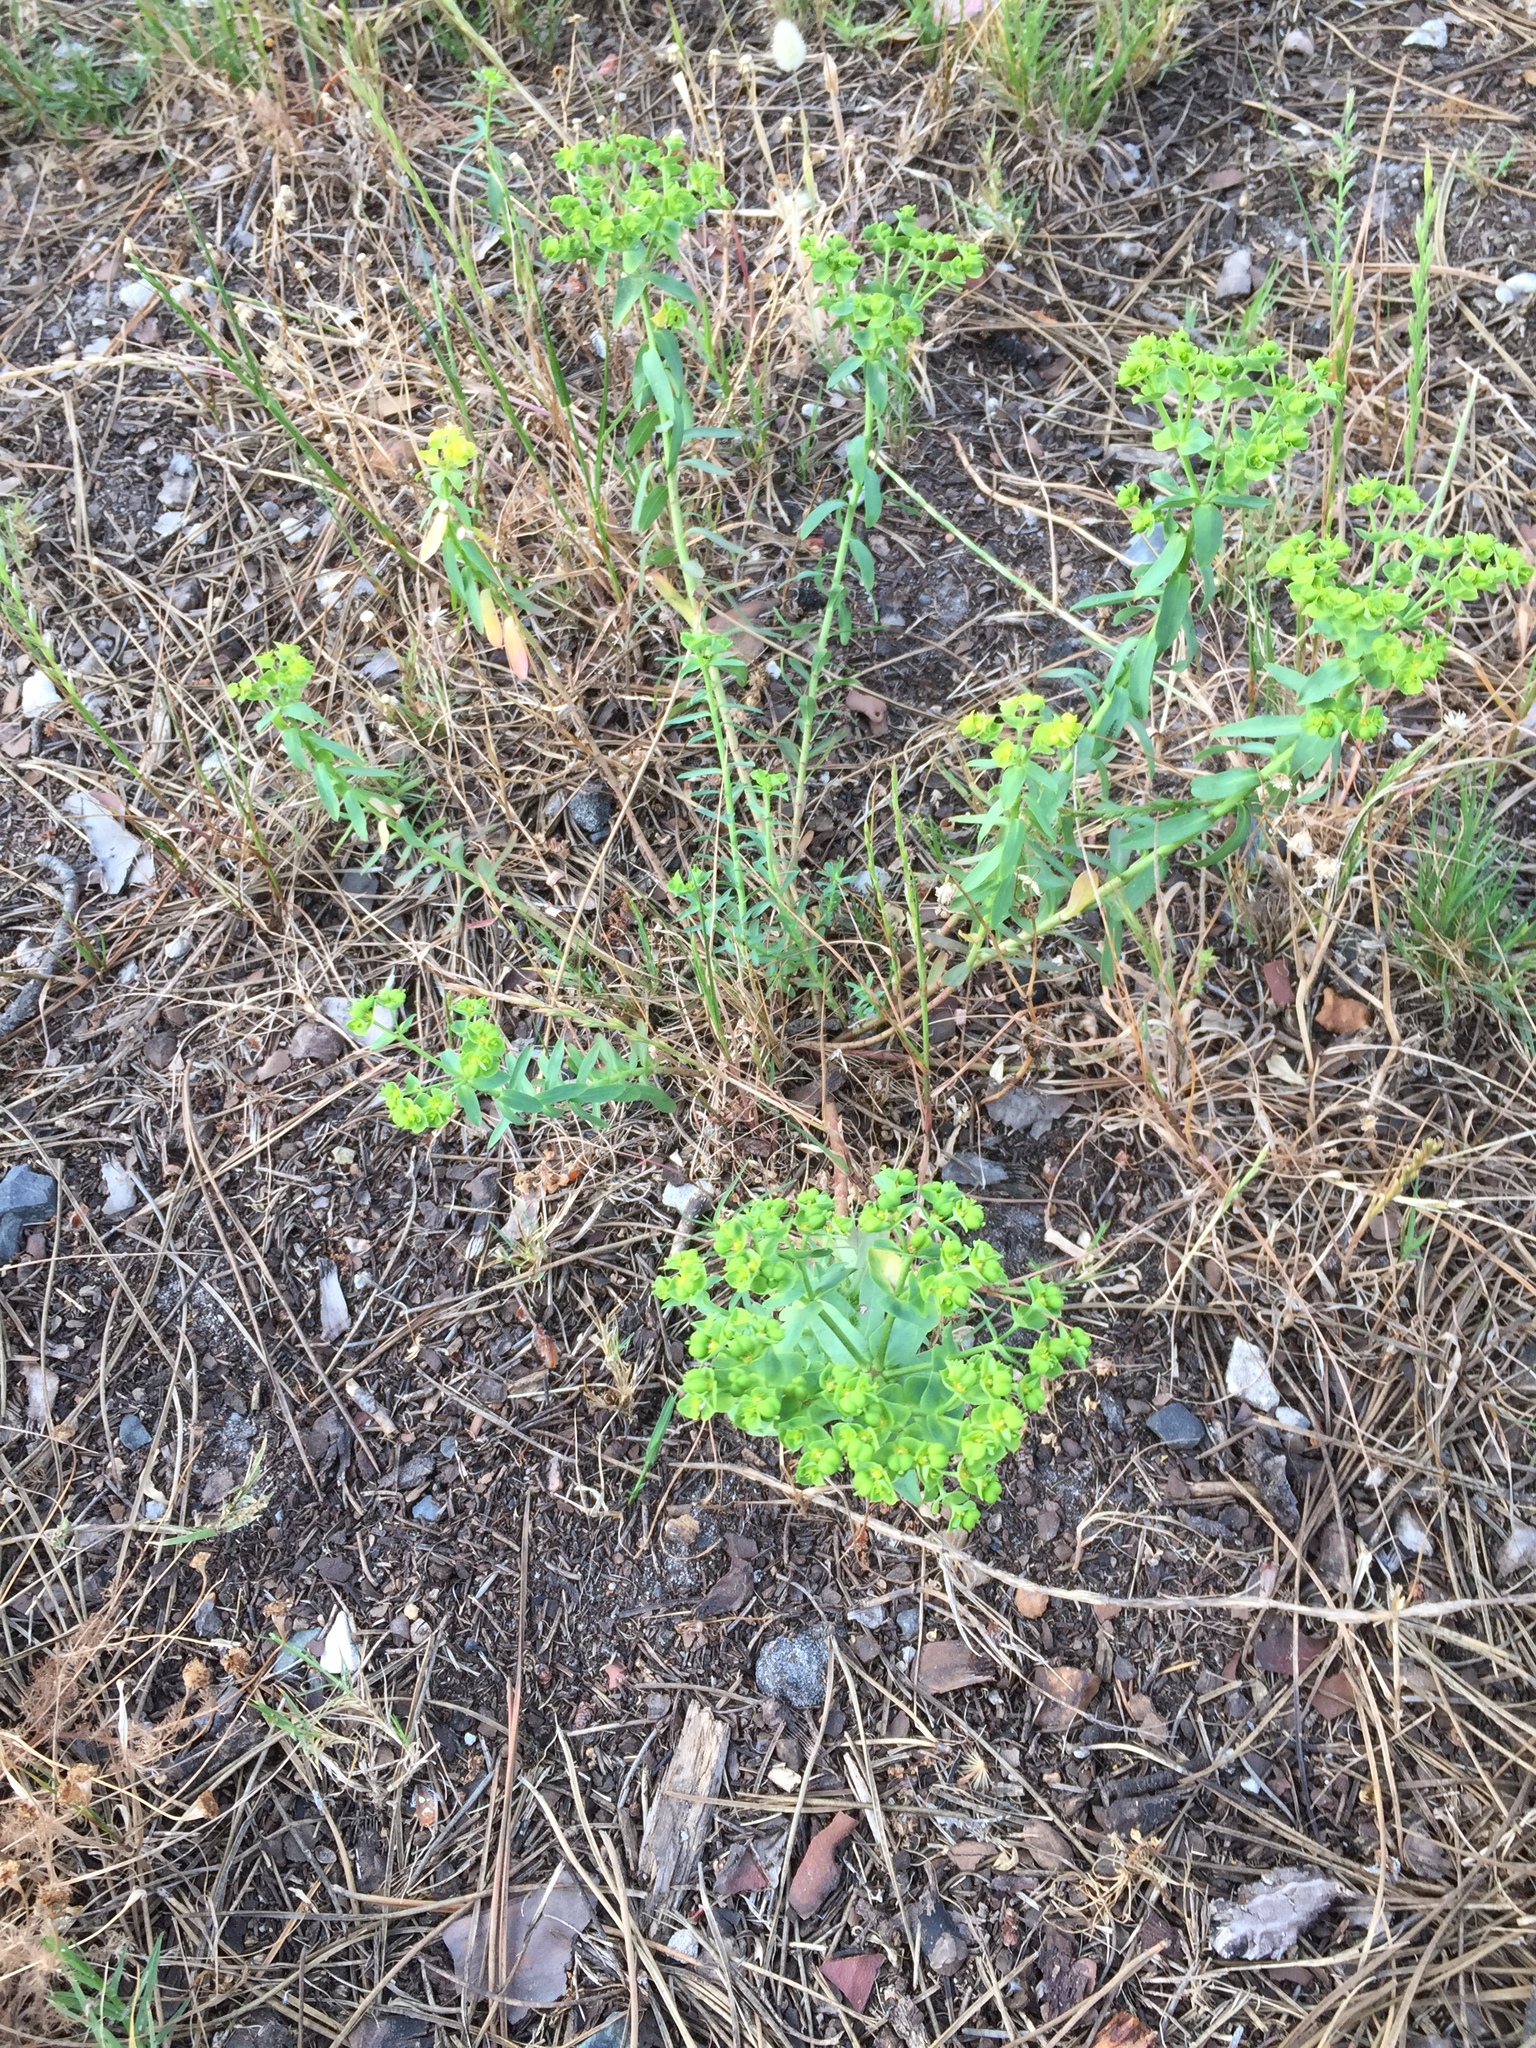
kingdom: Plantae
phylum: Tracheophyta
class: Magnoliopsida
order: Malpighiales
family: Euphorbiaceae
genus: Euphorbia
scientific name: Euphorbia terracina
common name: Geraldton carnation weed
